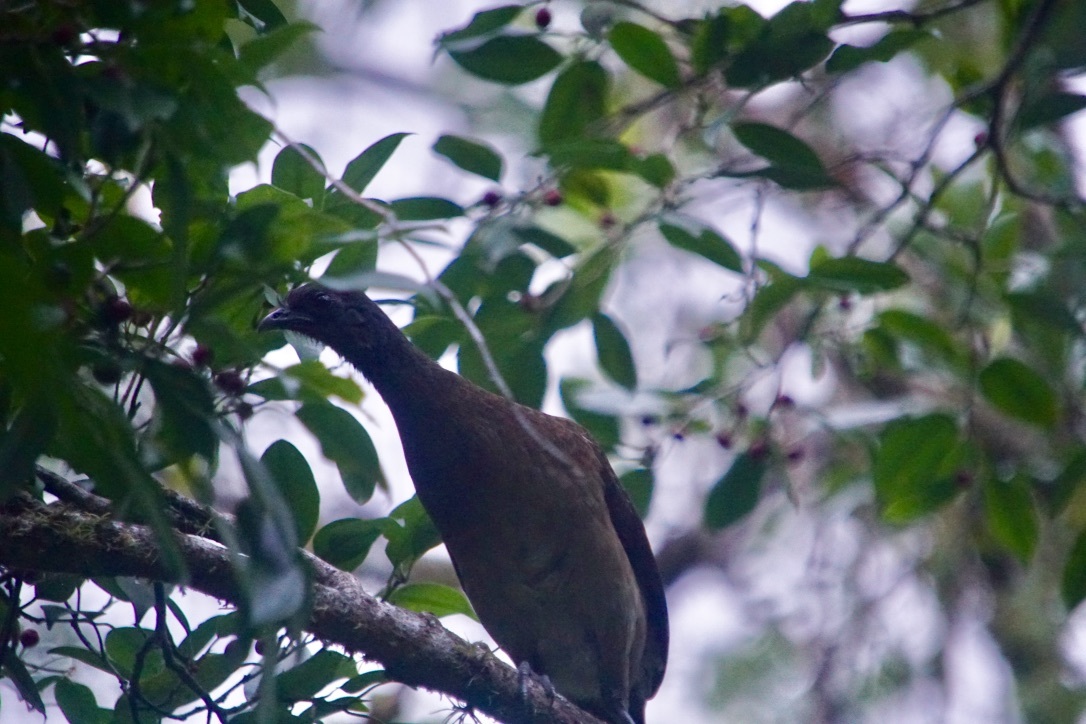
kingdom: Animalia
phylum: Chordata
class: Aves
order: Galliformes
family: Cracidae
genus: Ortalis
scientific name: Ortalis cinereiceps
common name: Grey-headed chachalaca
